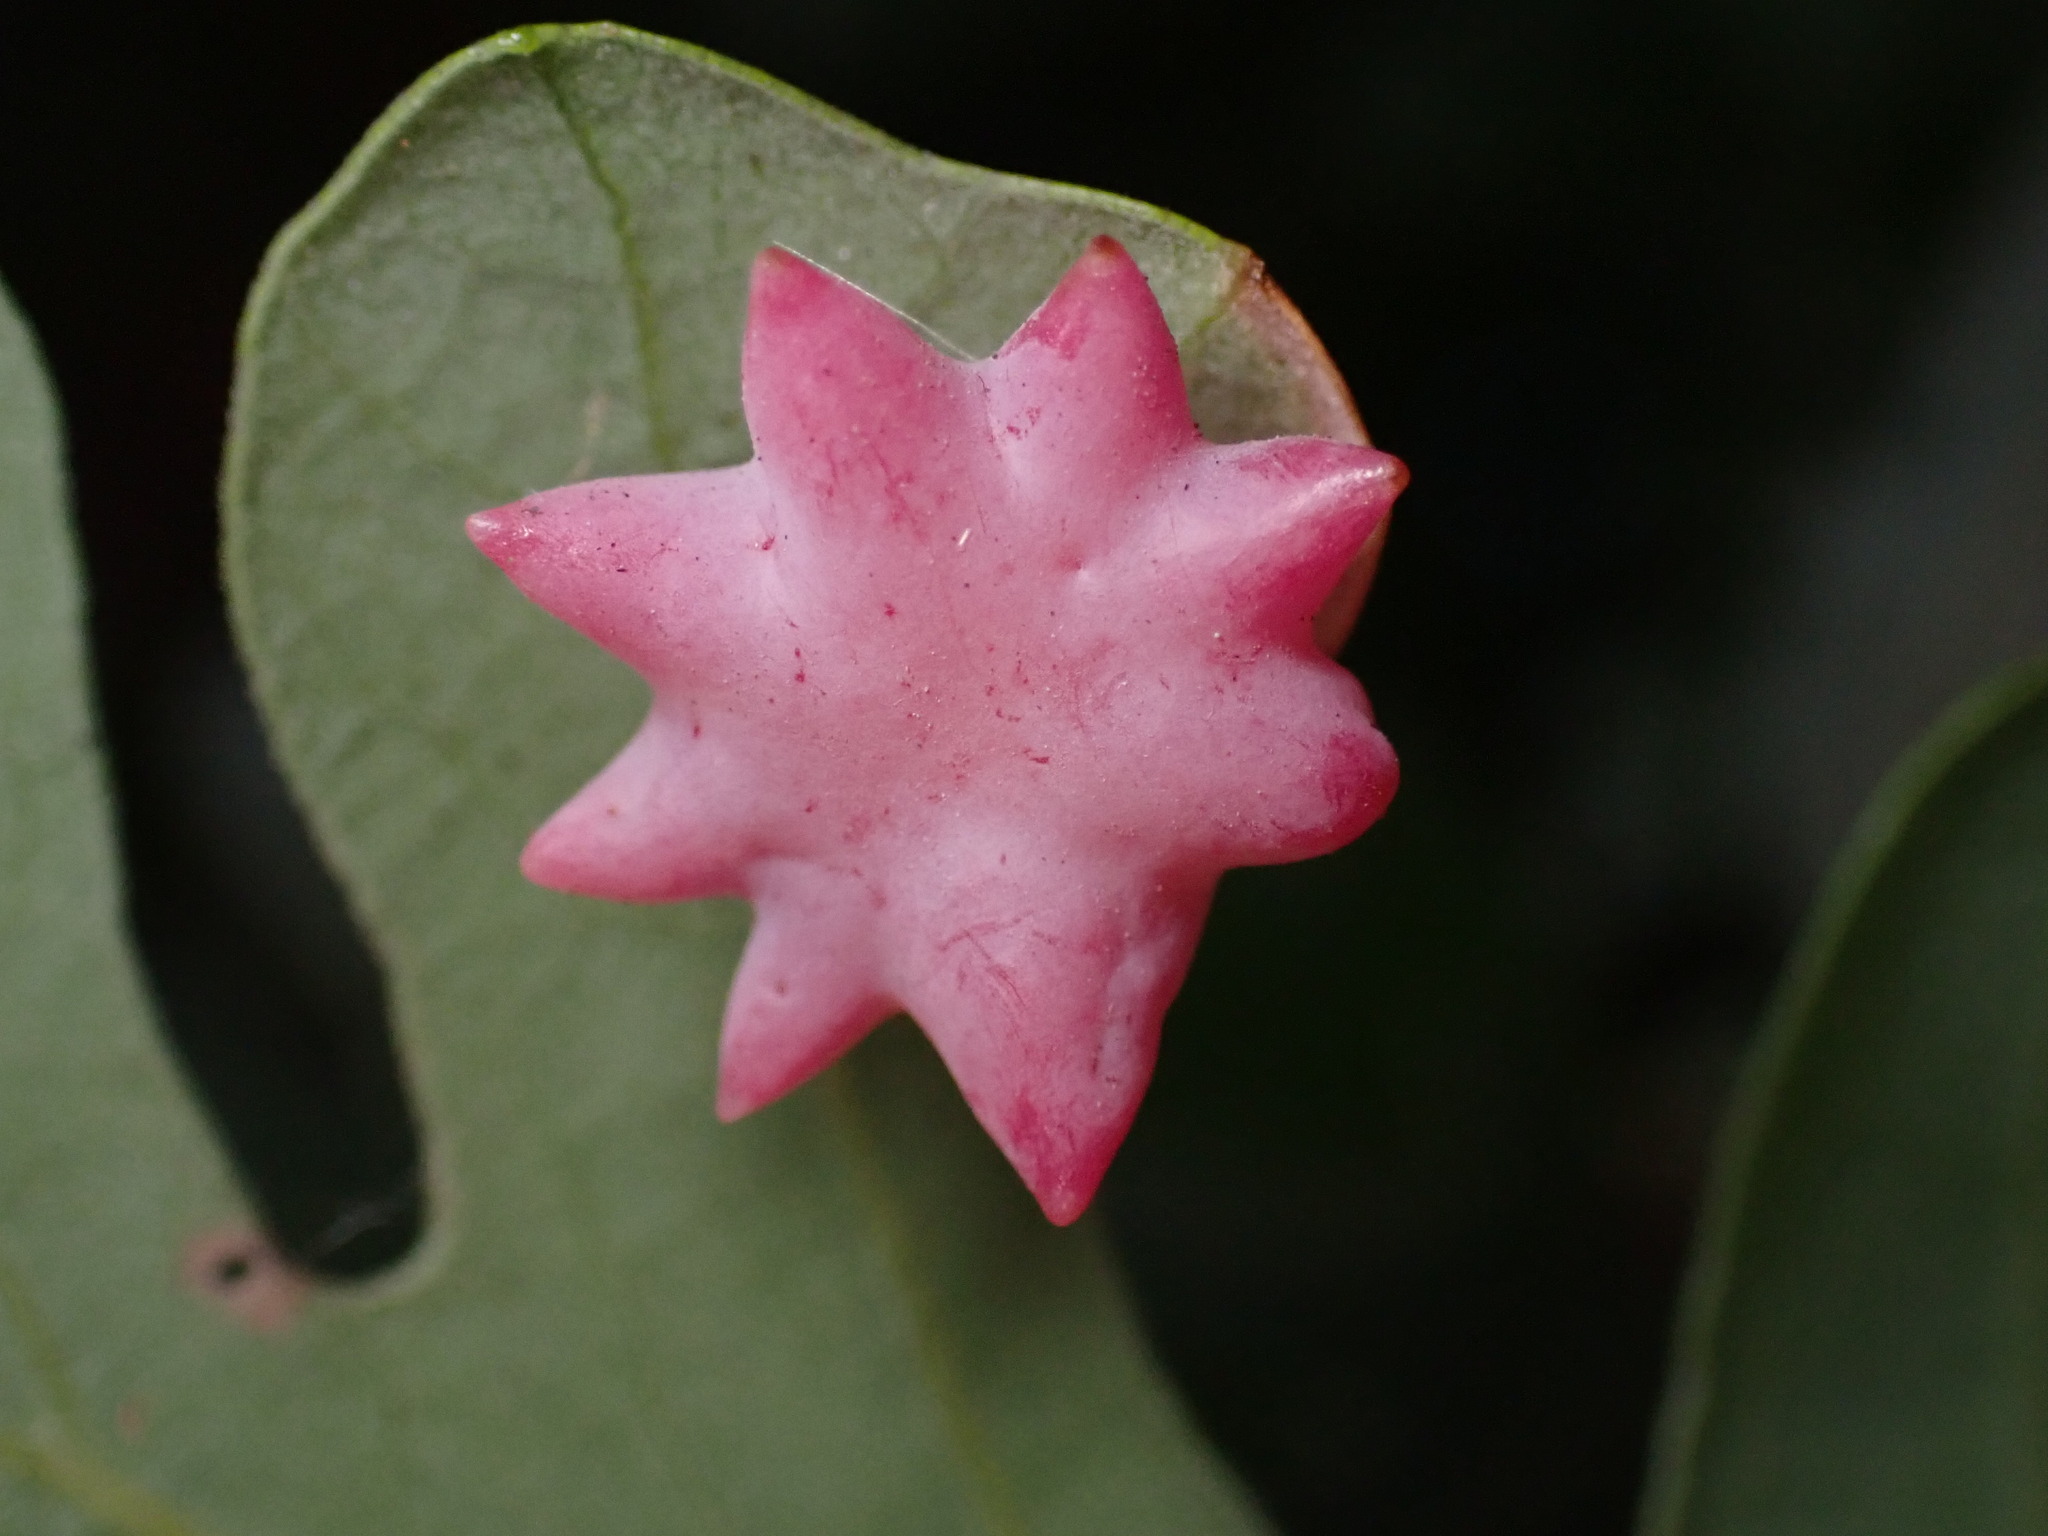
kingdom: Animalia
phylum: Arthropoda
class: Insecta
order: Hymenoptera
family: Cynipidae
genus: Cynips
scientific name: Cynips douglasi
